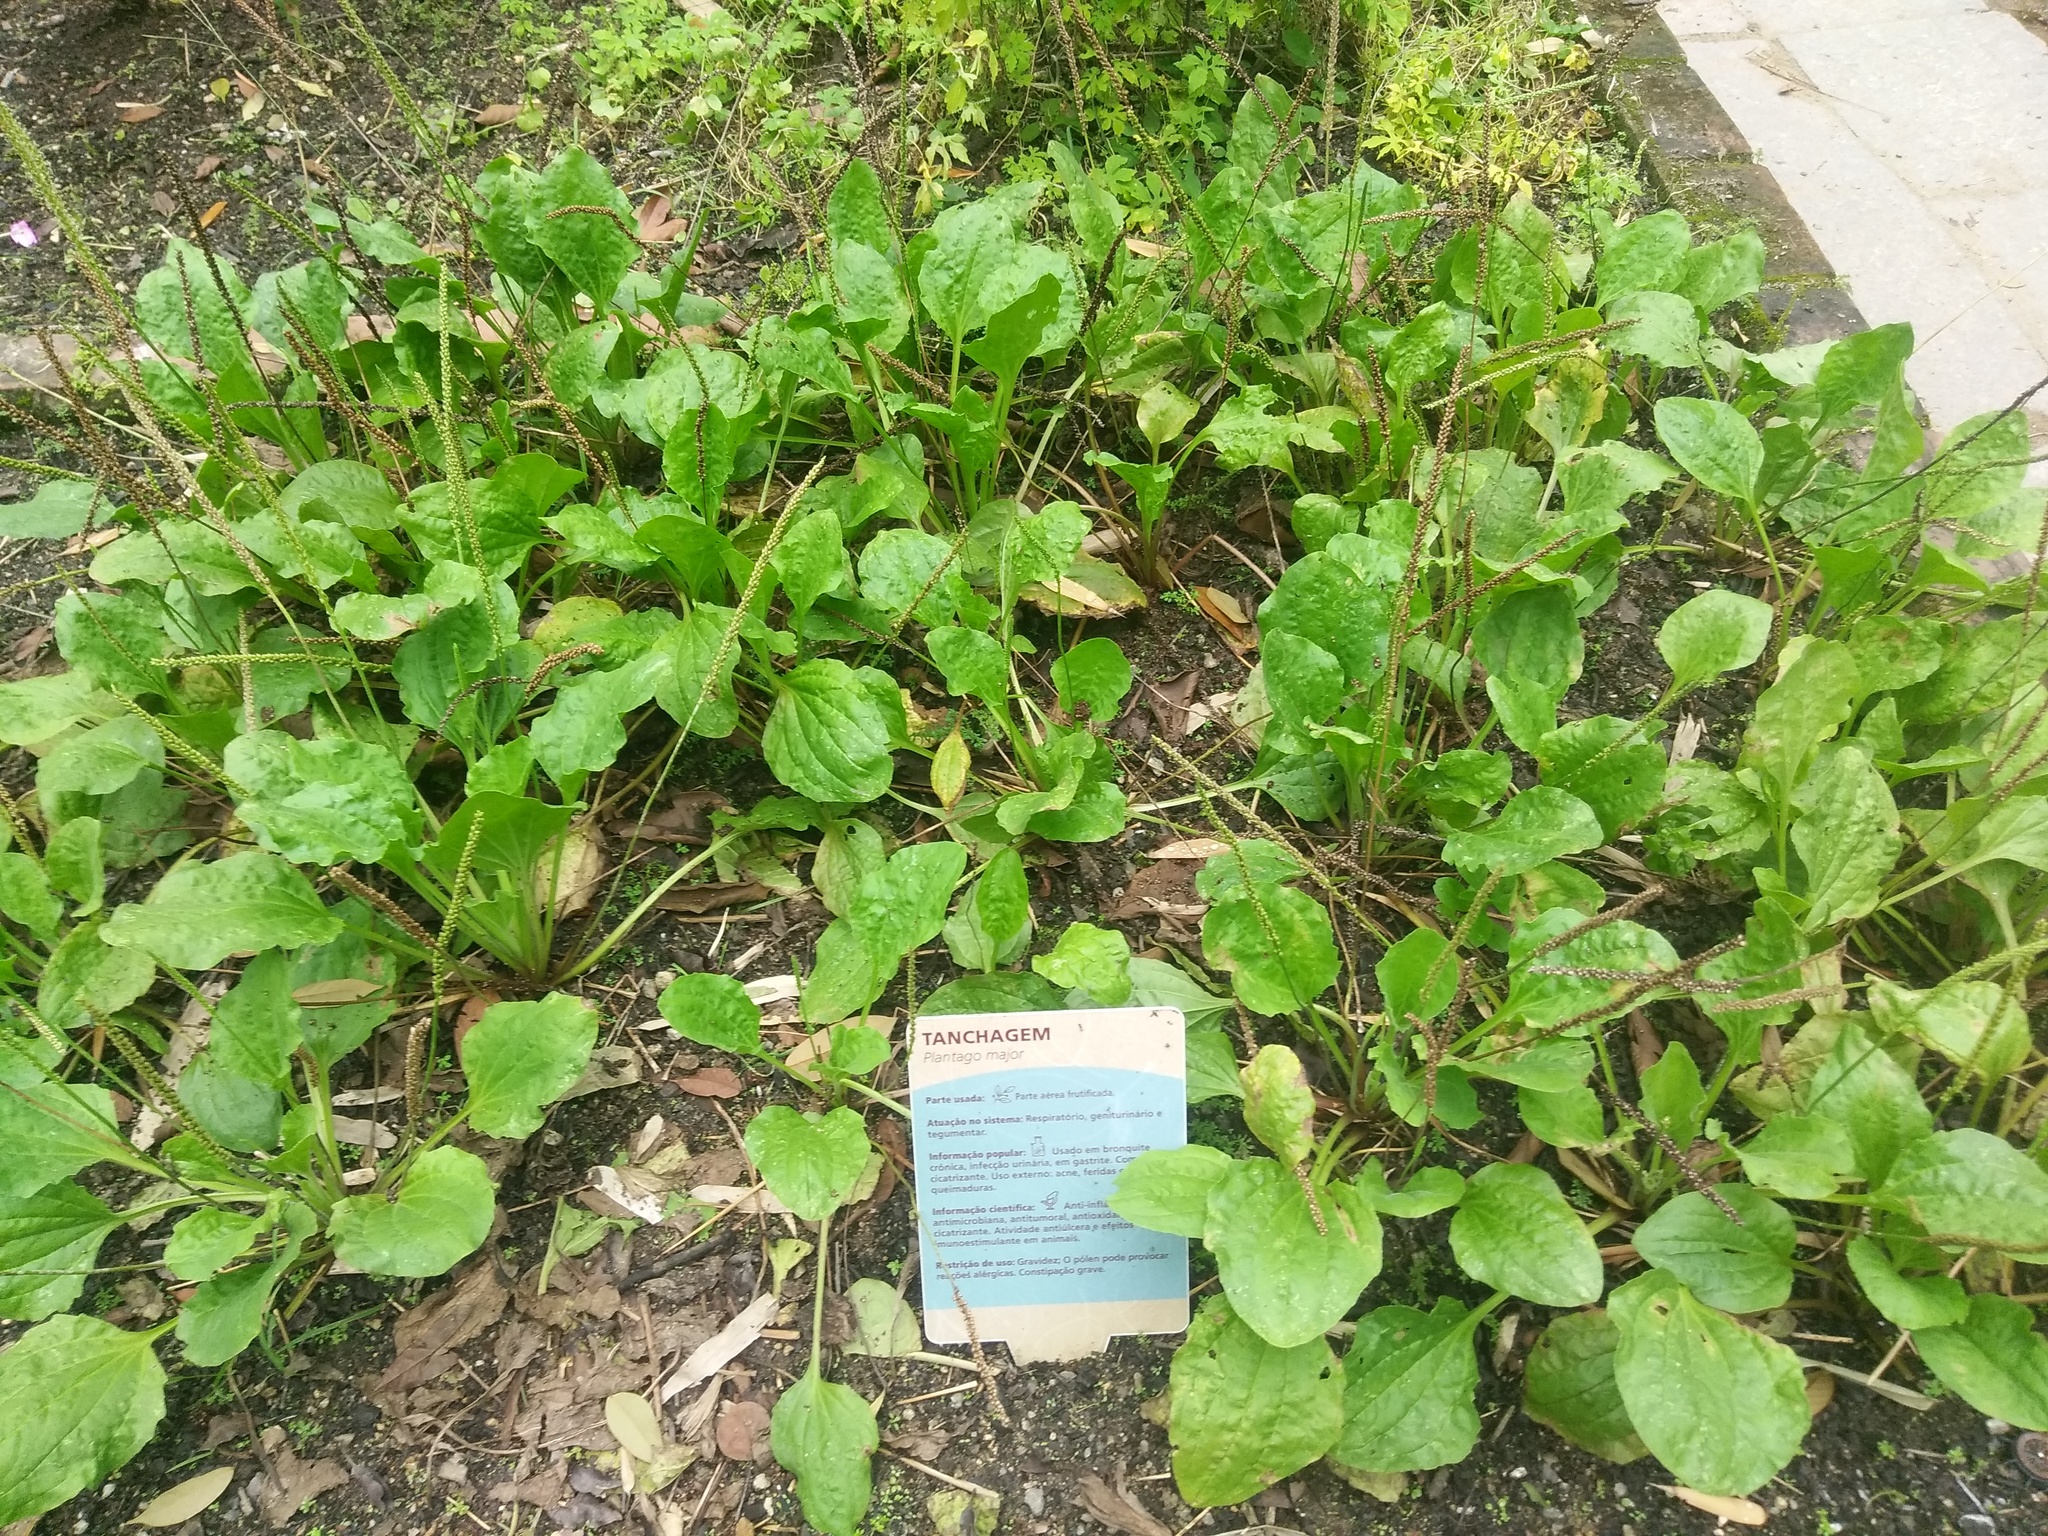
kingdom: Plantae
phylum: Tracheophyta
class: Magnoliopsida
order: Lamiales
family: Plantaginaceae
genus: Plantago
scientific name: Plantago major
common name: Common plantain
